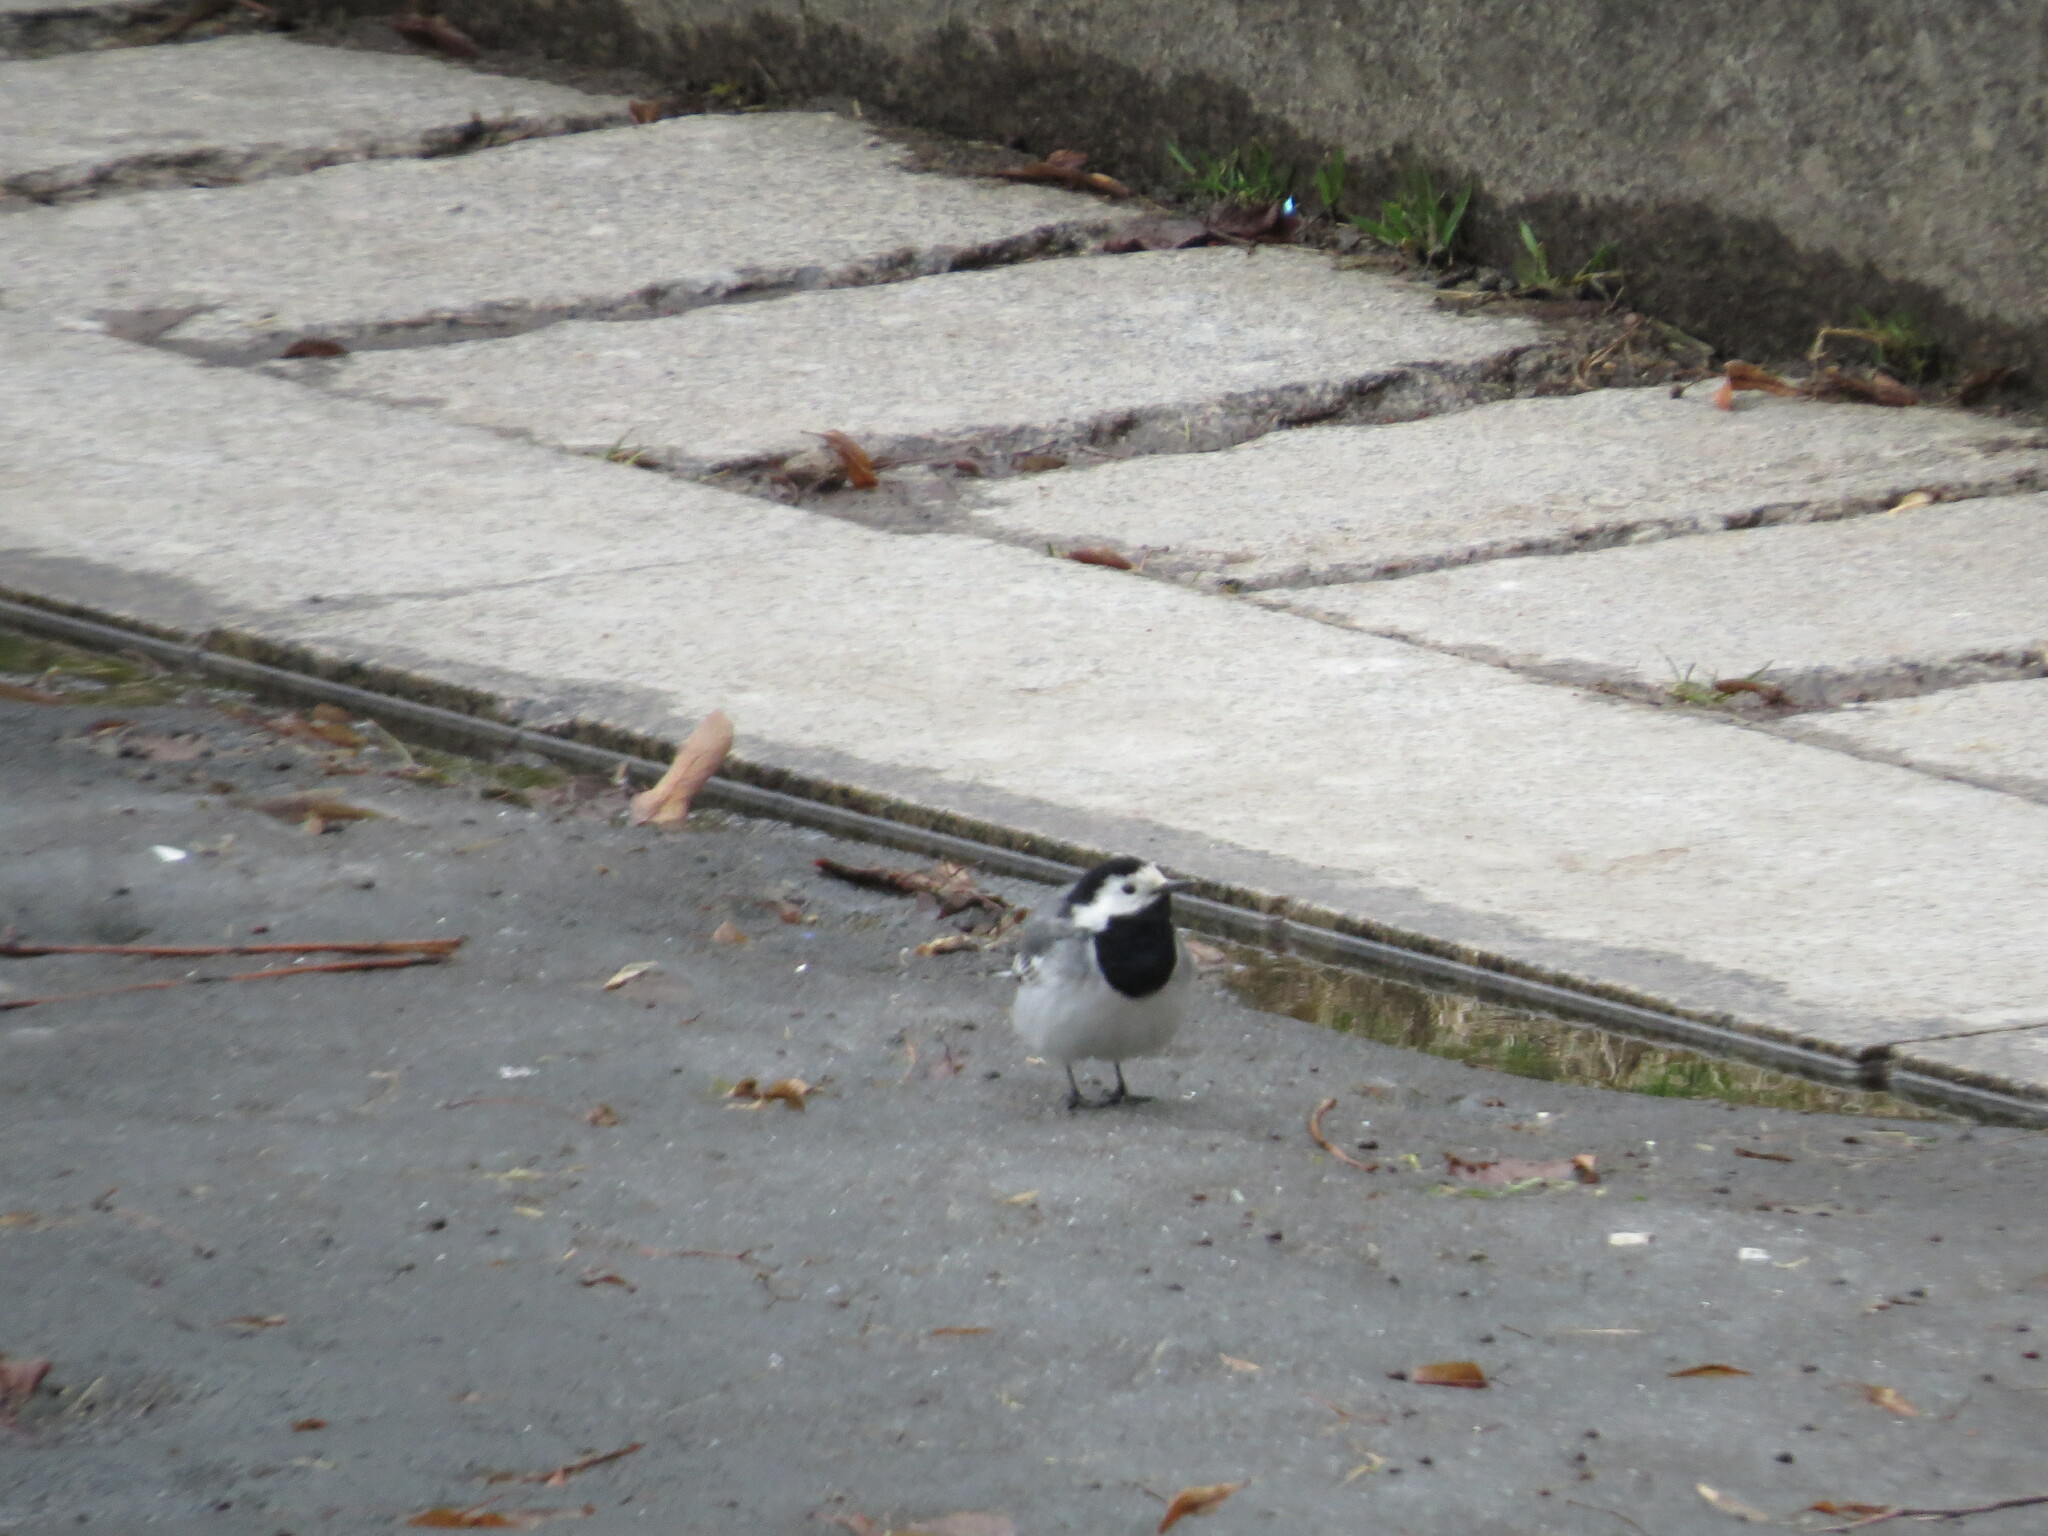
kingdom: Animalia
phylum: Chordata
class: Aves
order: Passeriformes
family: Motacillidae
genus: Motacilla
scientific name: Motacilla alba
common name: White wagtail
